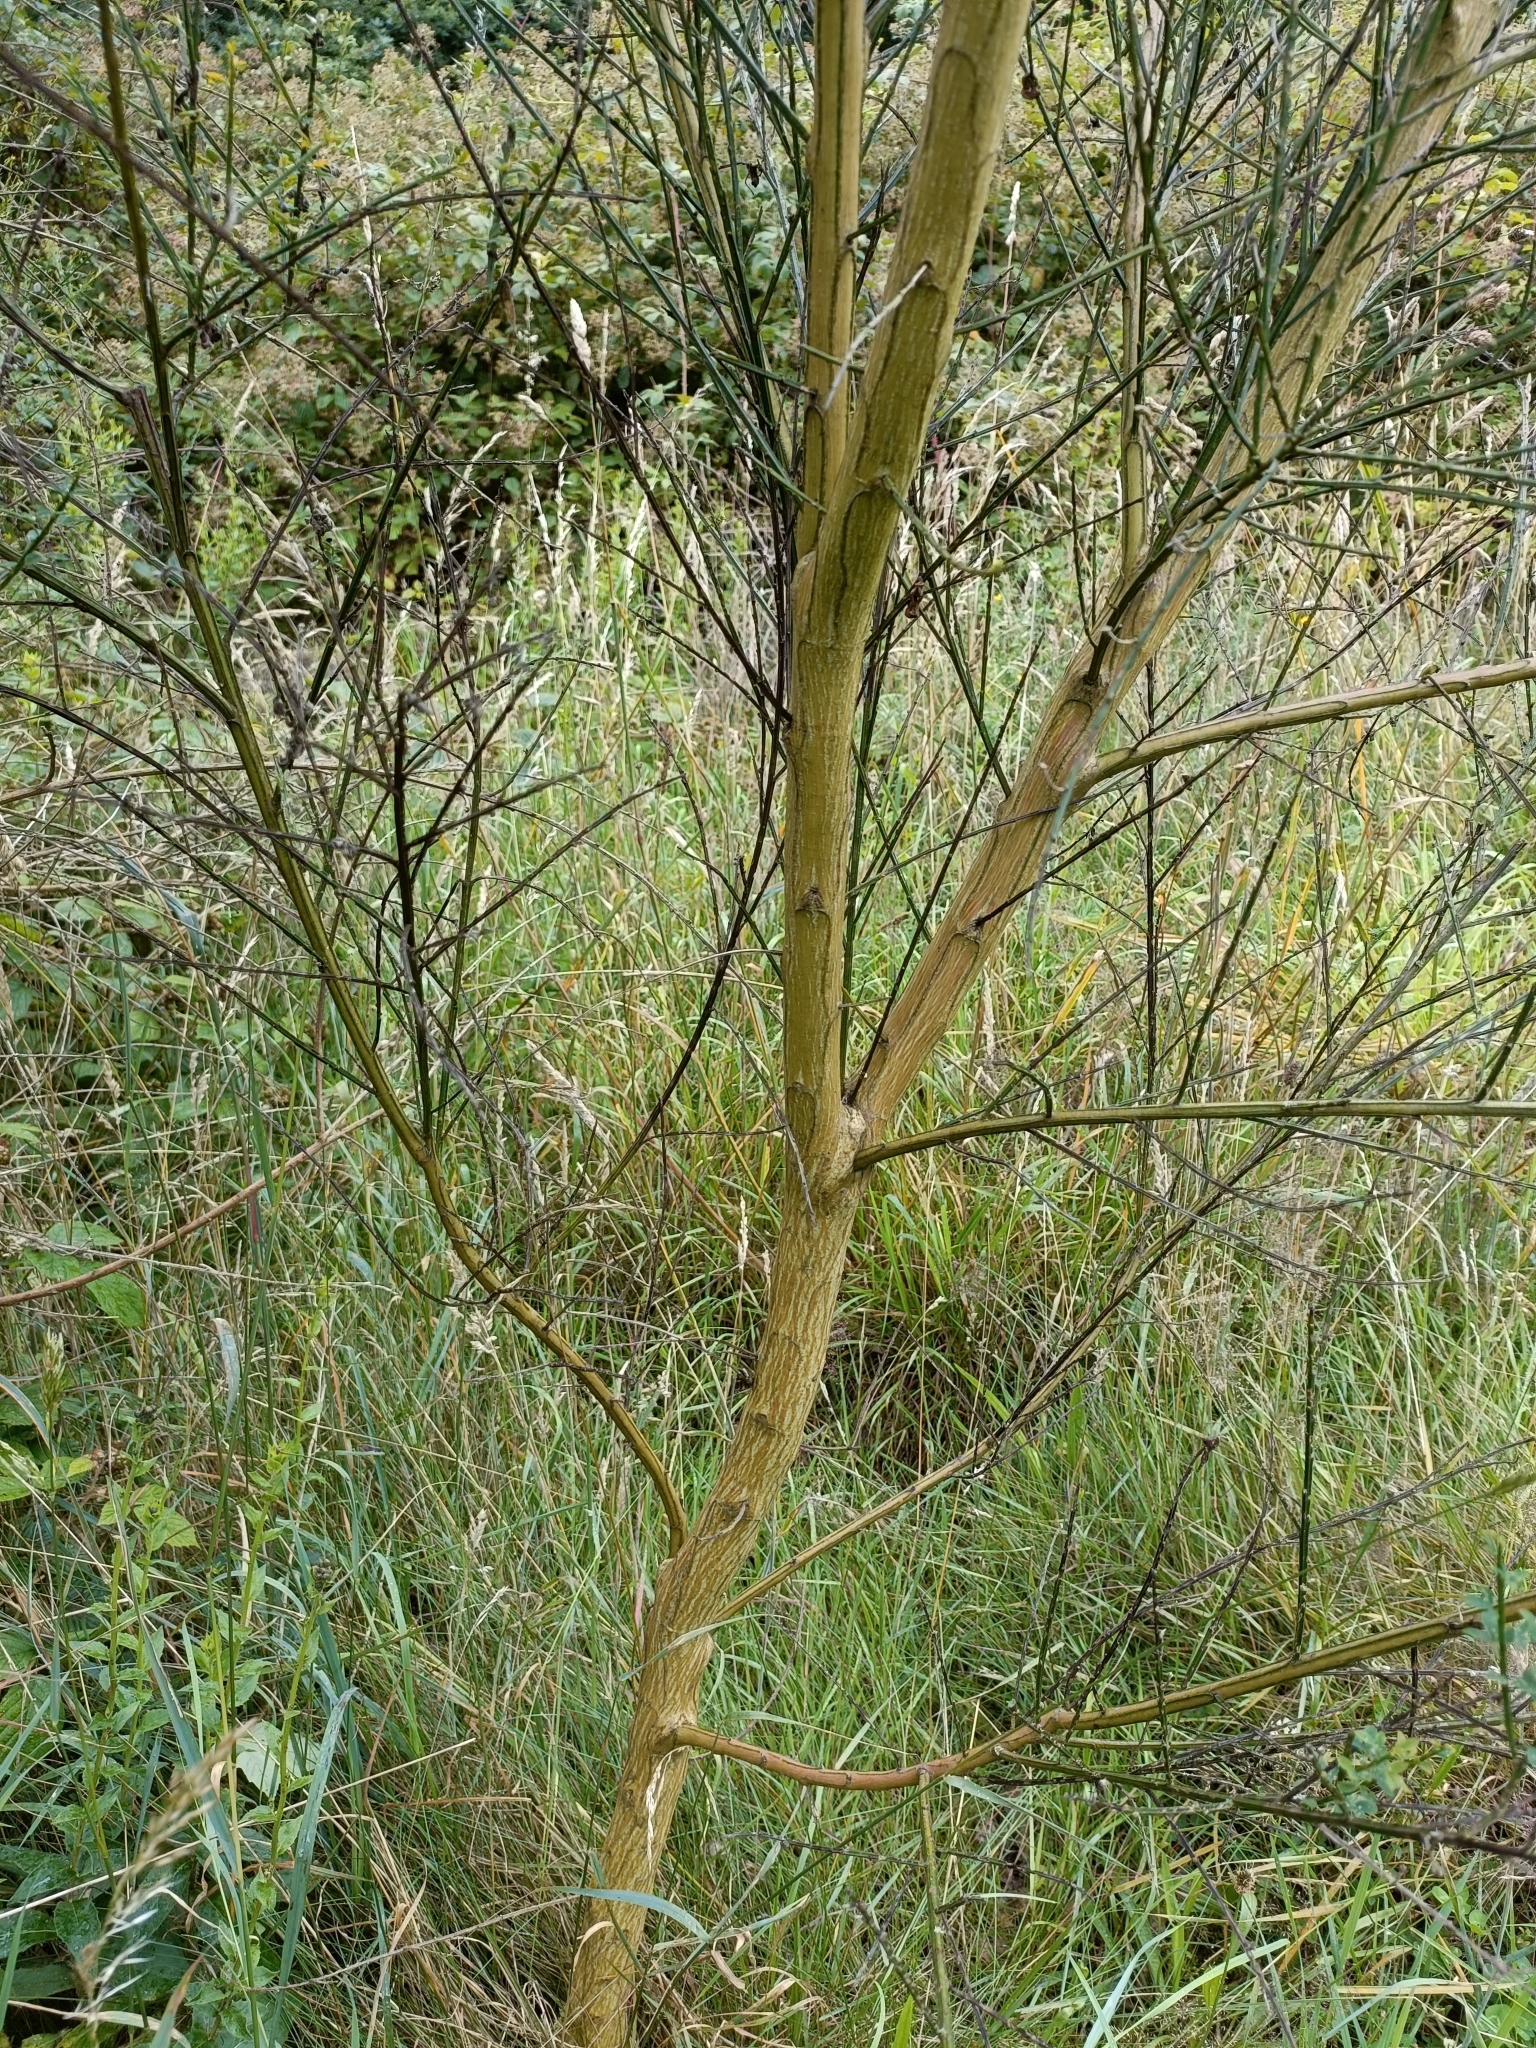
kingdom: Plantae
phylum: Tracheophyta
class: Magnoliopsida
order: Fabales
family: Fabaceae
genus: Cytisus
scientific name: Cytisus scoparius
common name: Scotch broom
